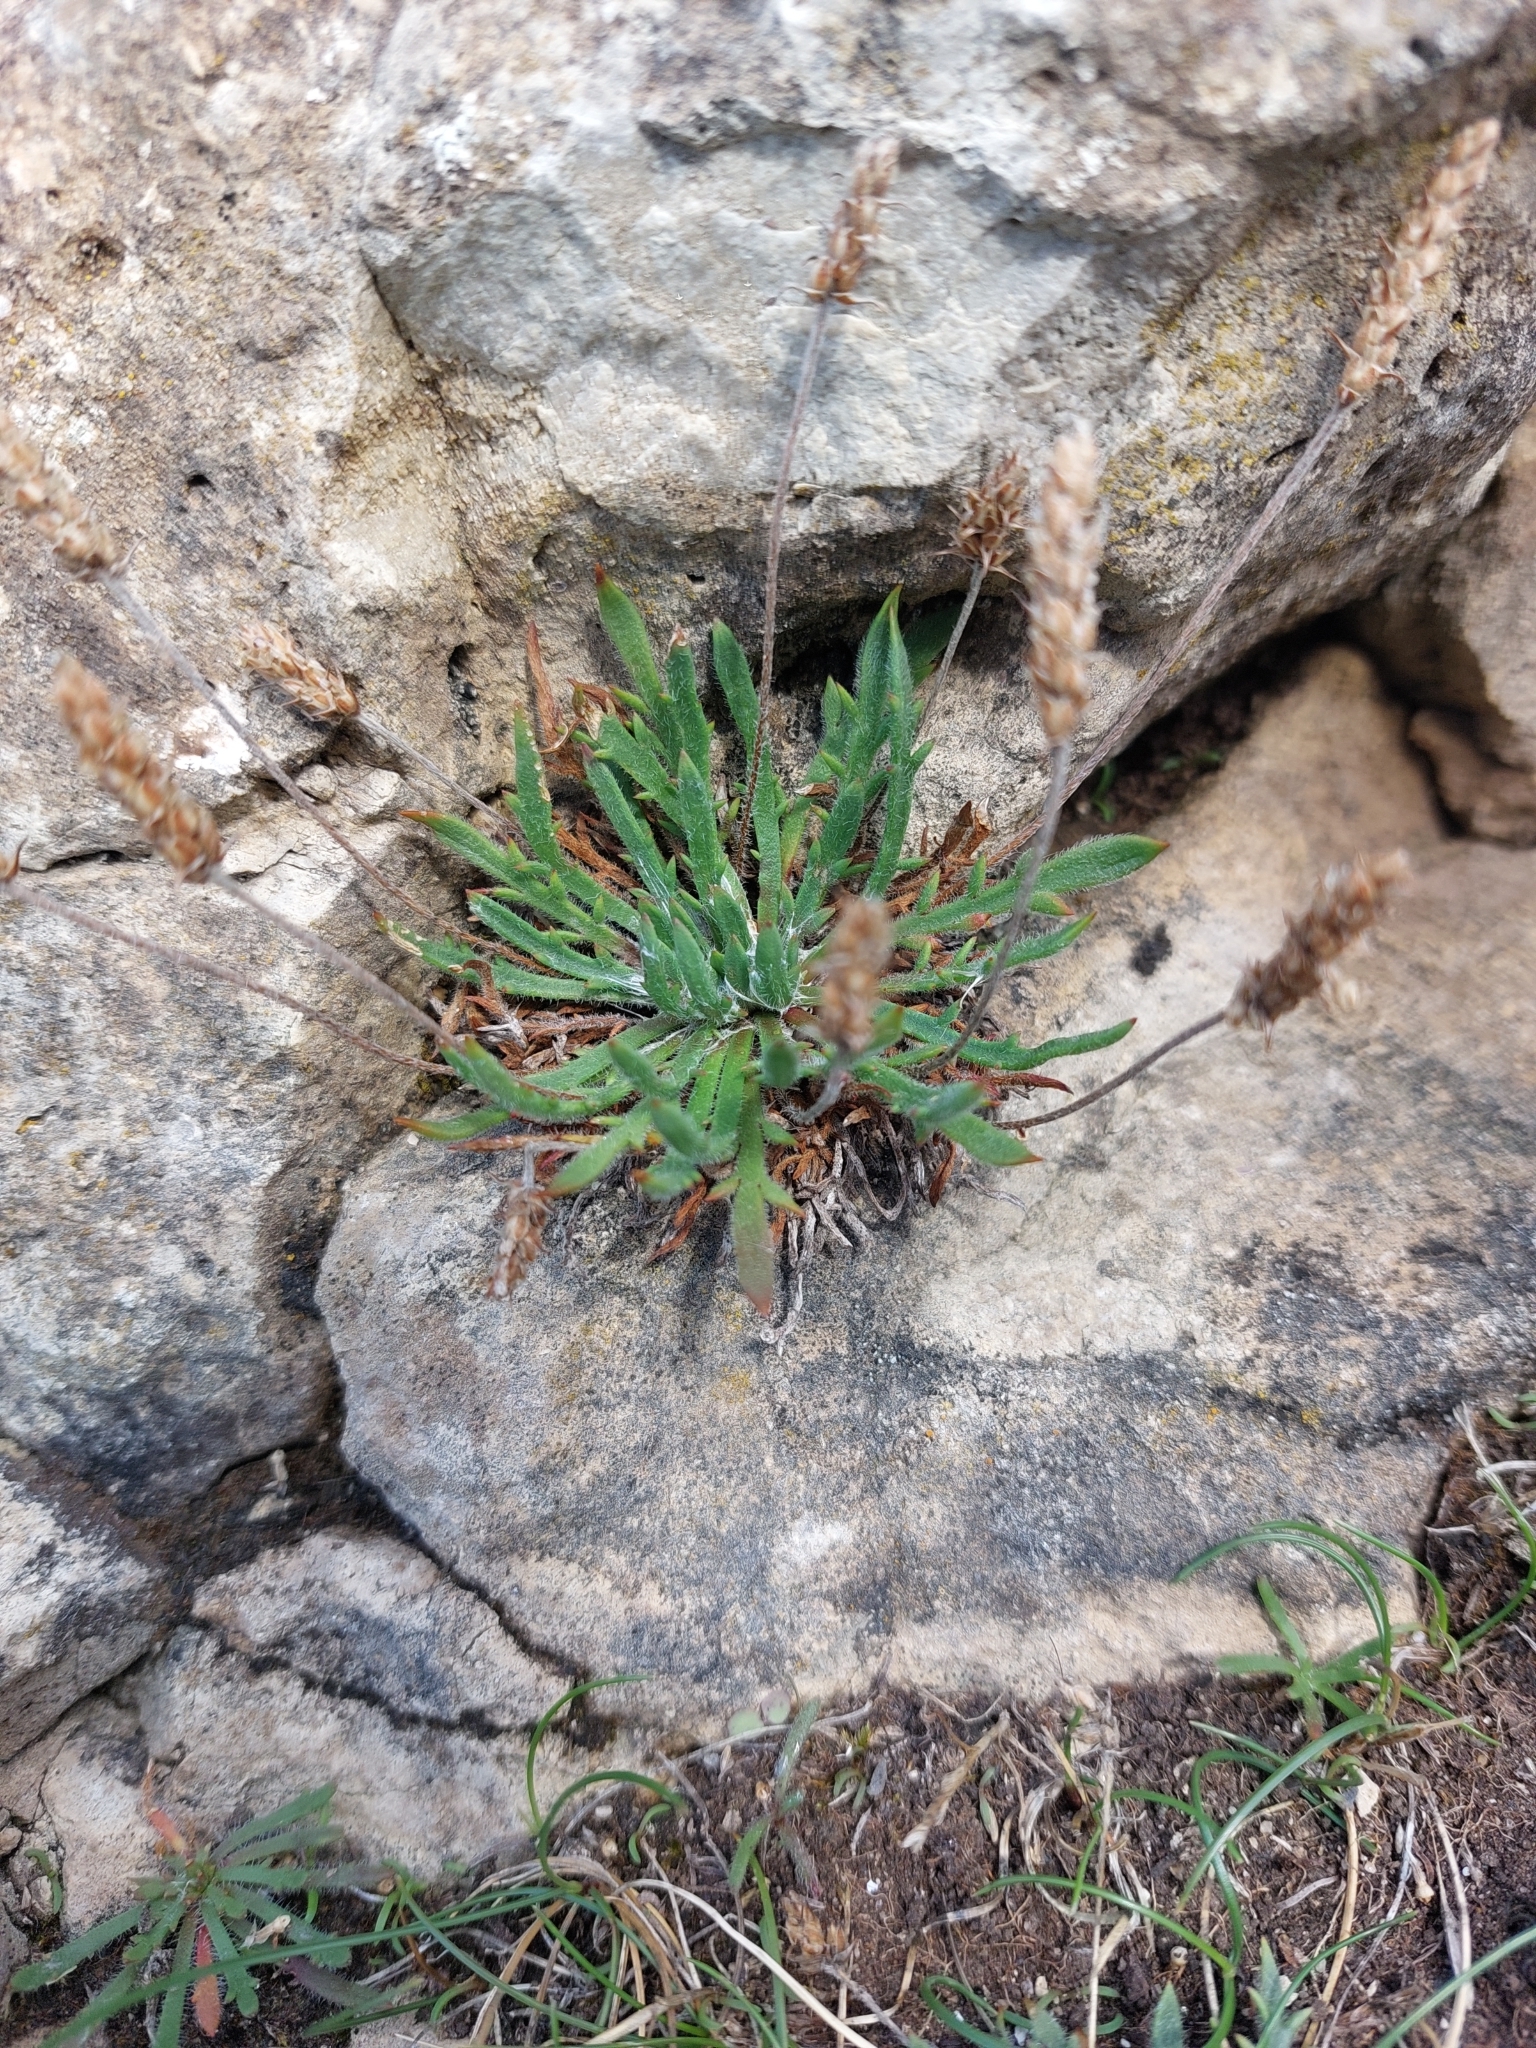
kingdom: Plantae
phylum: Tracheophyta
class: Magnoliopsida
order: Lamiales
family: Plantaginaceae
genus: Plantago
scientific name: Plantago coronopus
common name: Buck's-horn plantain
